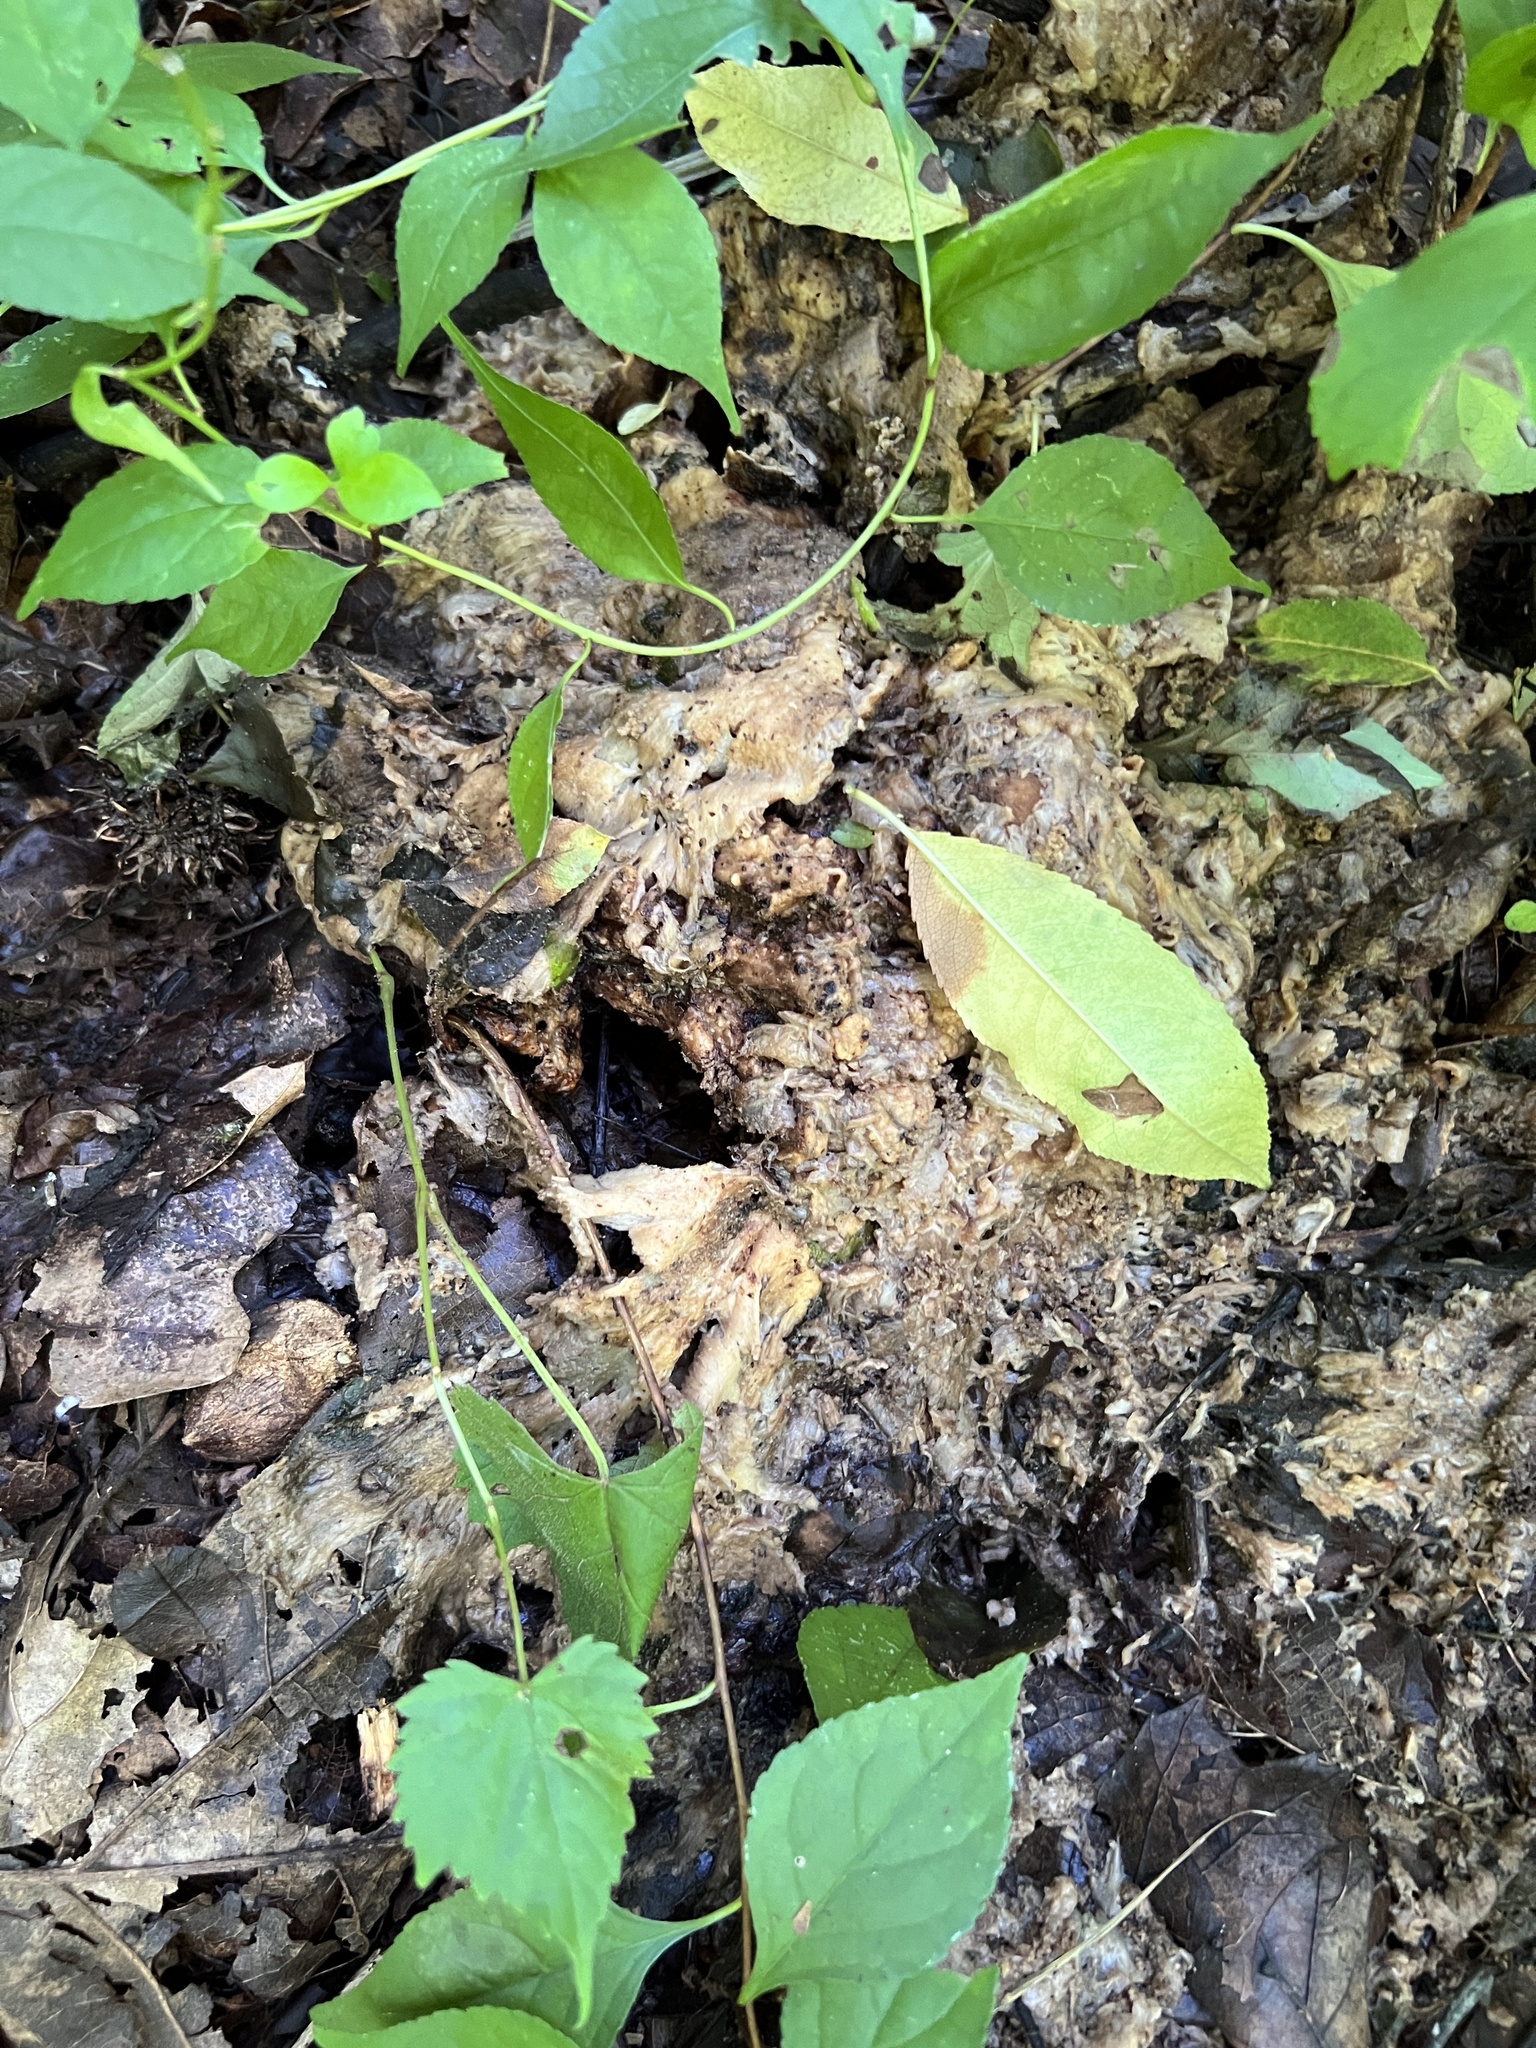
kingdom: Fungi
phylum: Basidiomycota
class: Agaricomycetes
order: Polyporales
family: Sparassidaceae
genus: Sparassis
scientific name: Sparassis spathulata
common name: Eastern cauliflower mushroom
